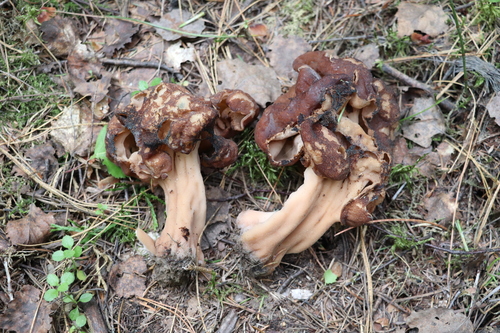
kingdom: Fungi
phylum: Ascomycota
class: Pezizomycetes
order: Pezizales
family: Discinaceae
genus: Gyromitra
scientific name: Gyromitra esculenta
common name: False morel
